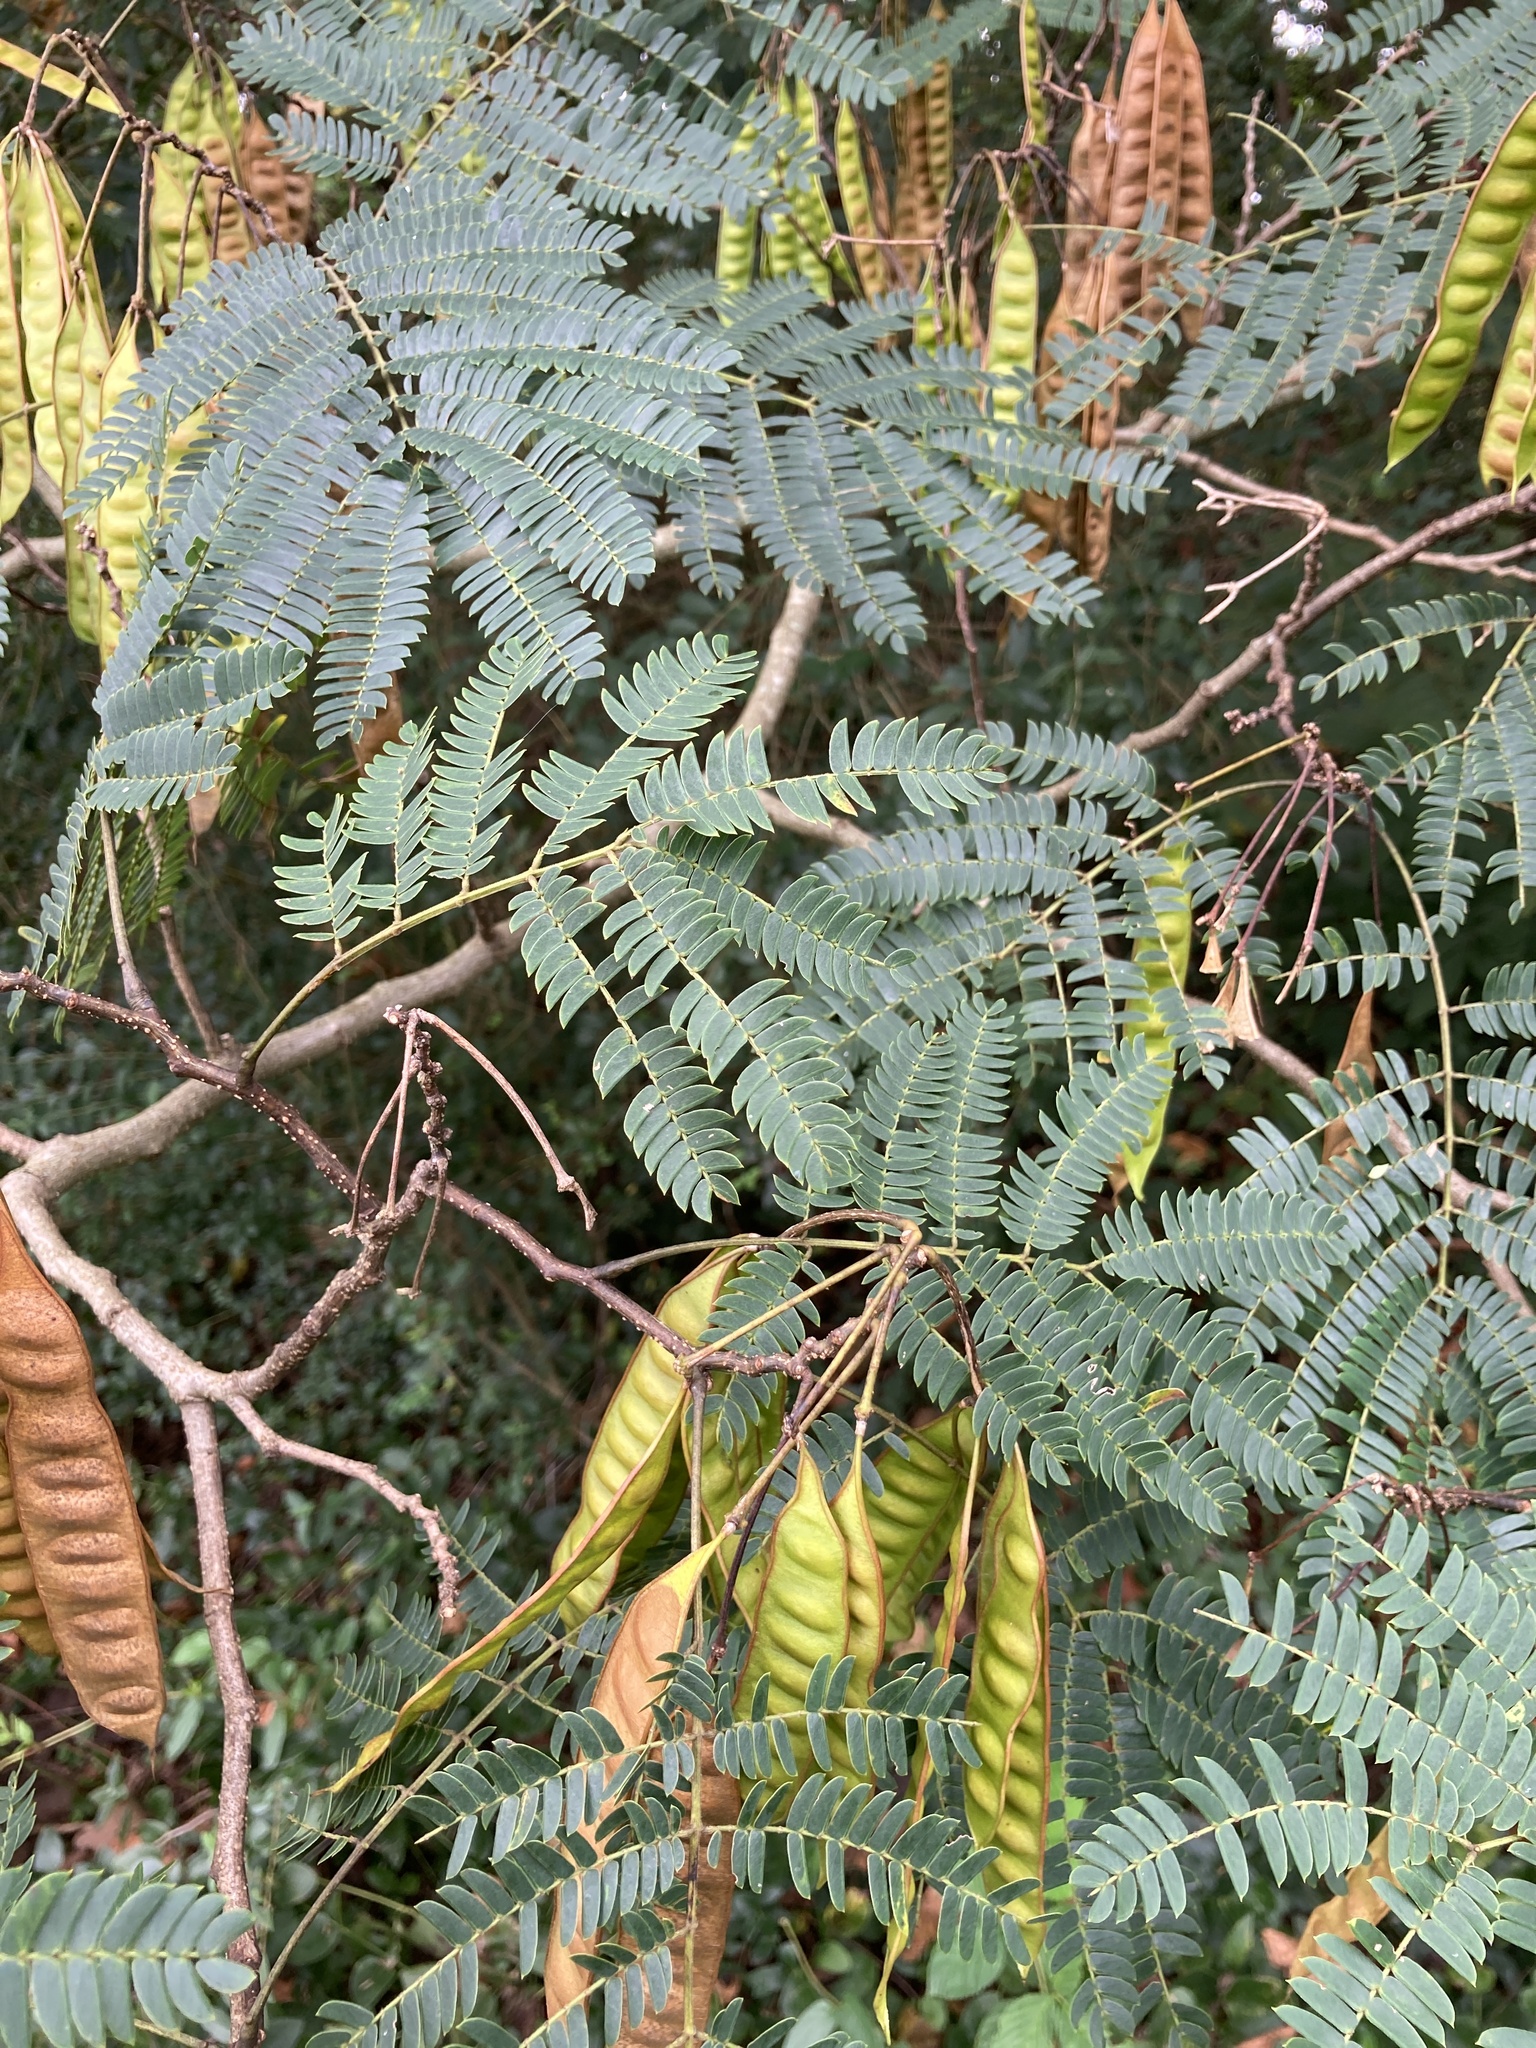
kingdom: Plantae
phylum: Tracheophyta
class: Magnoliopsida
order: Fabales
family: Fabaceae
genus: Albizia
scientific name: Albizia julibrissin
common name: Silktree
